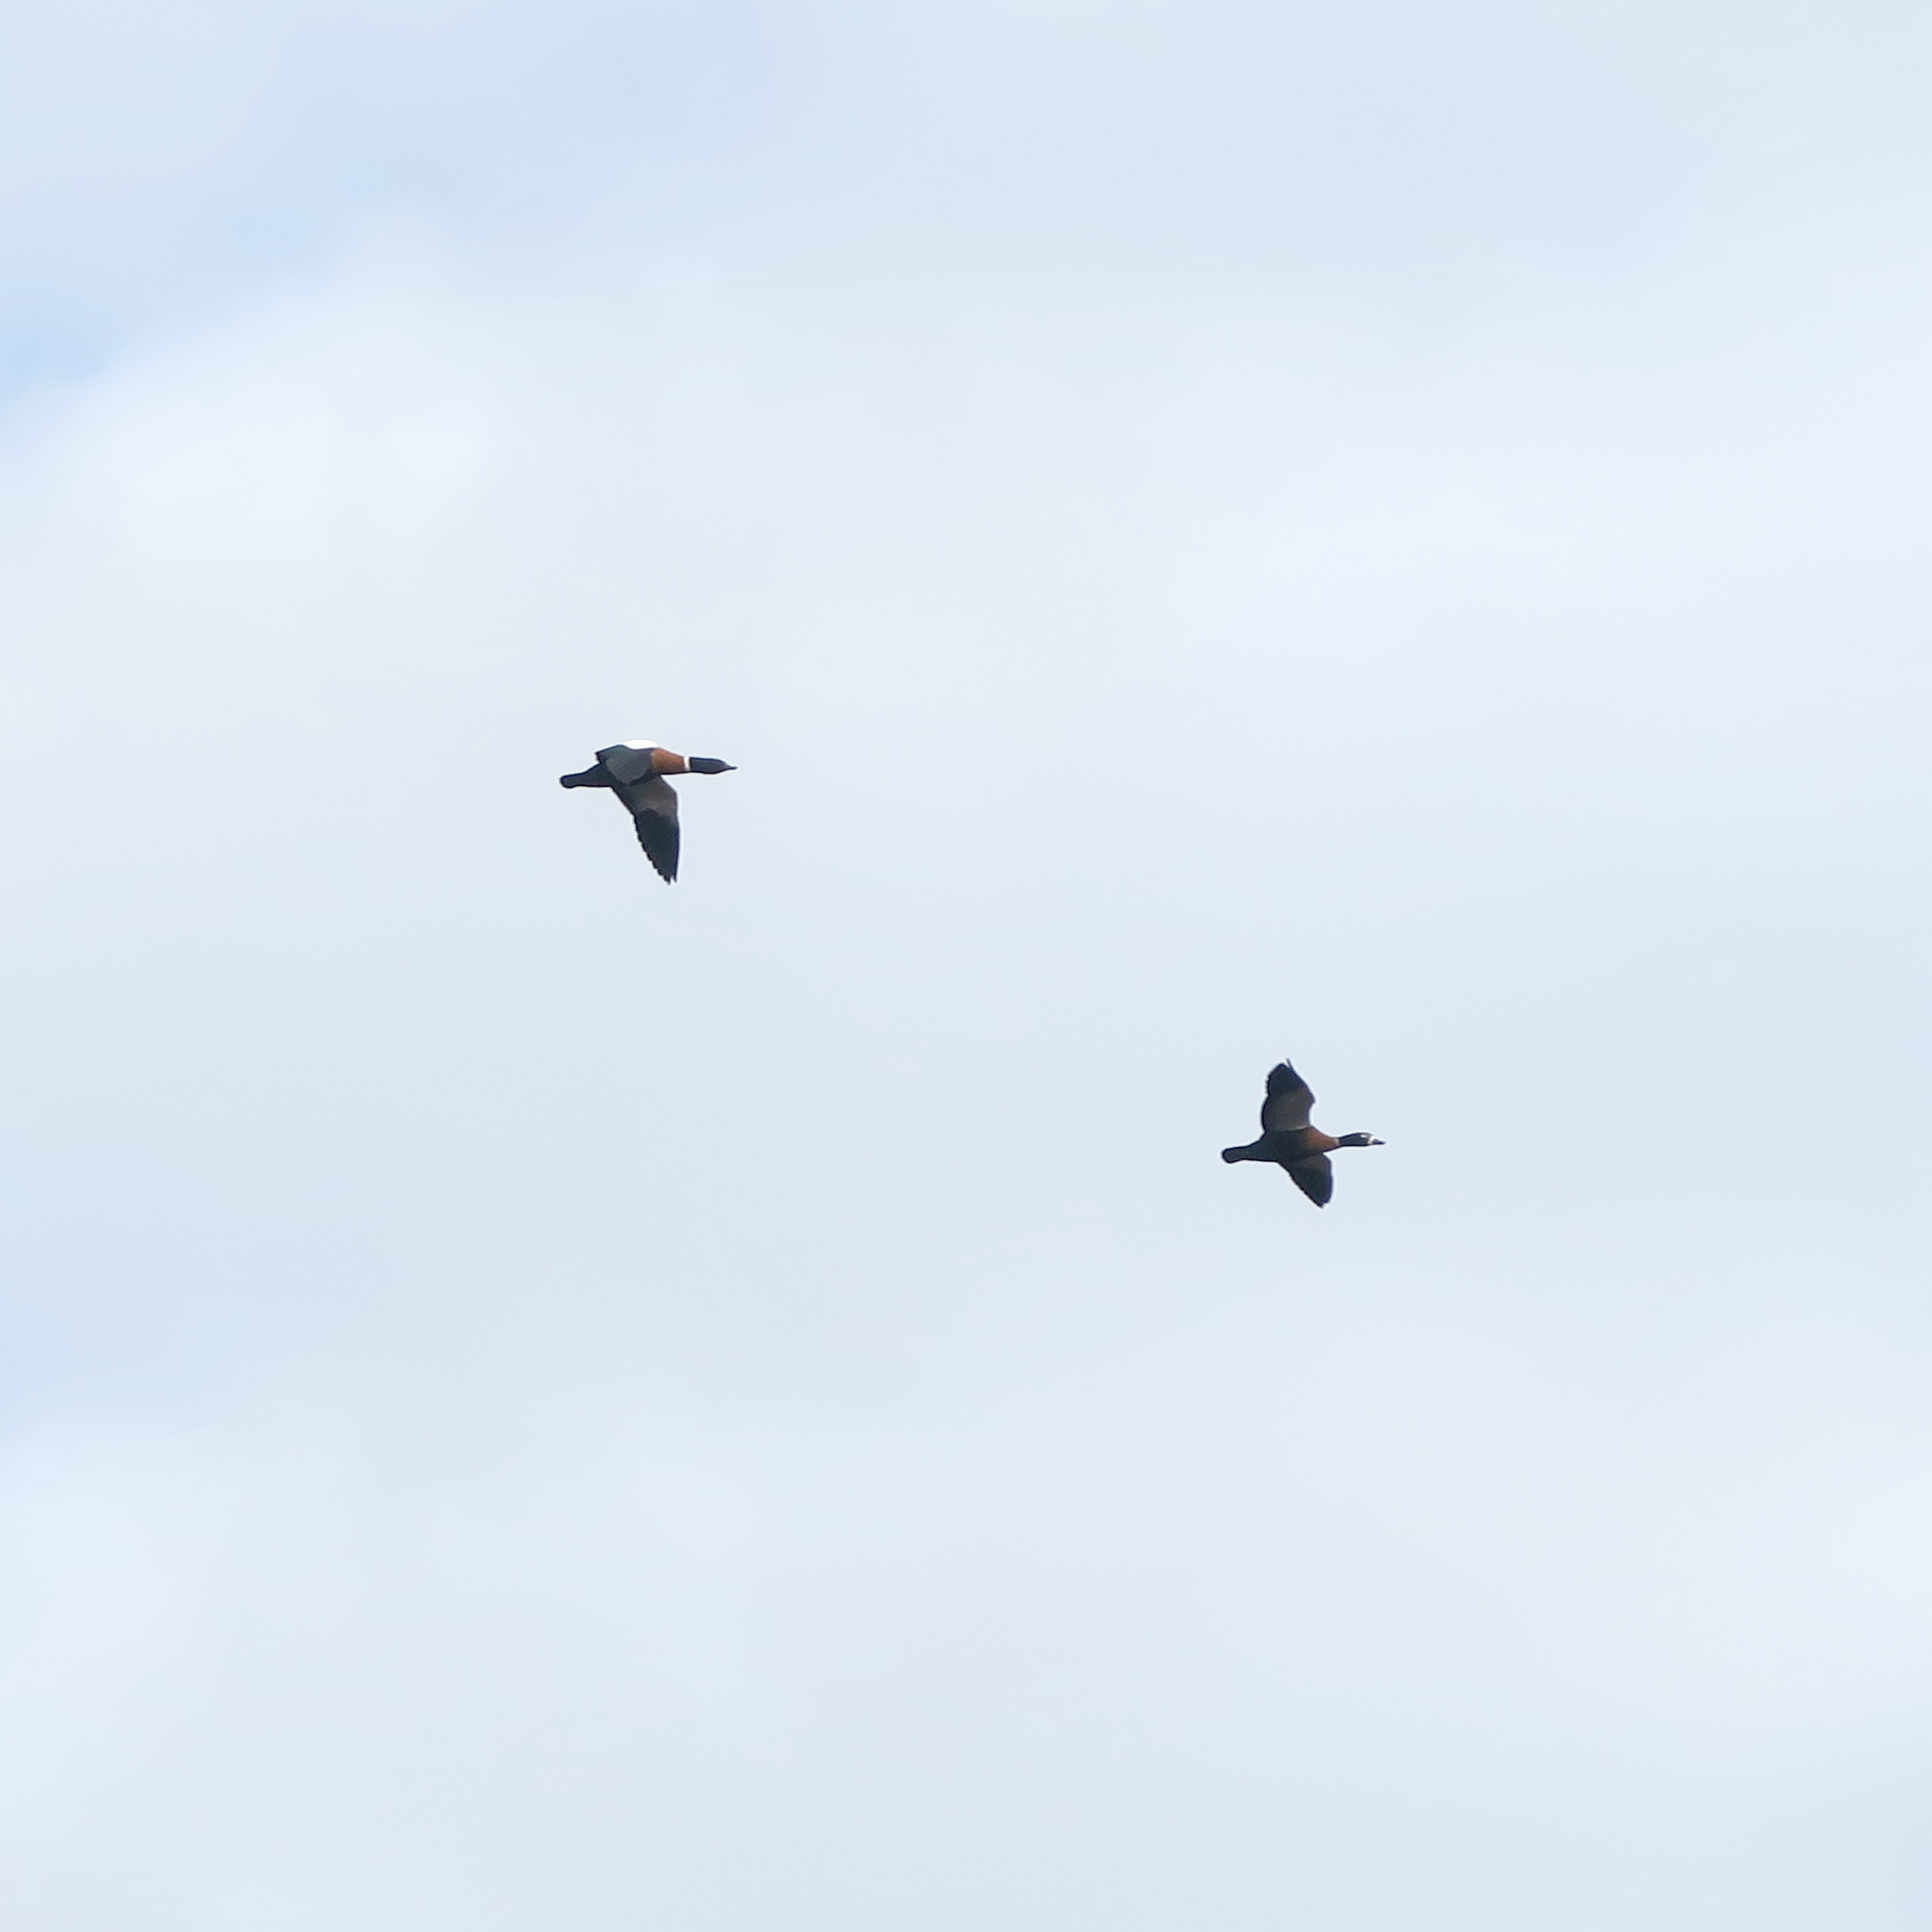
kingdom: Animalia
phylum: Chordata
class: Aves
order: Anseriformes
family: Anatidae
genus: Tadorna
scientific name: Tadorna tadornoides
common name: Australian shelduck
